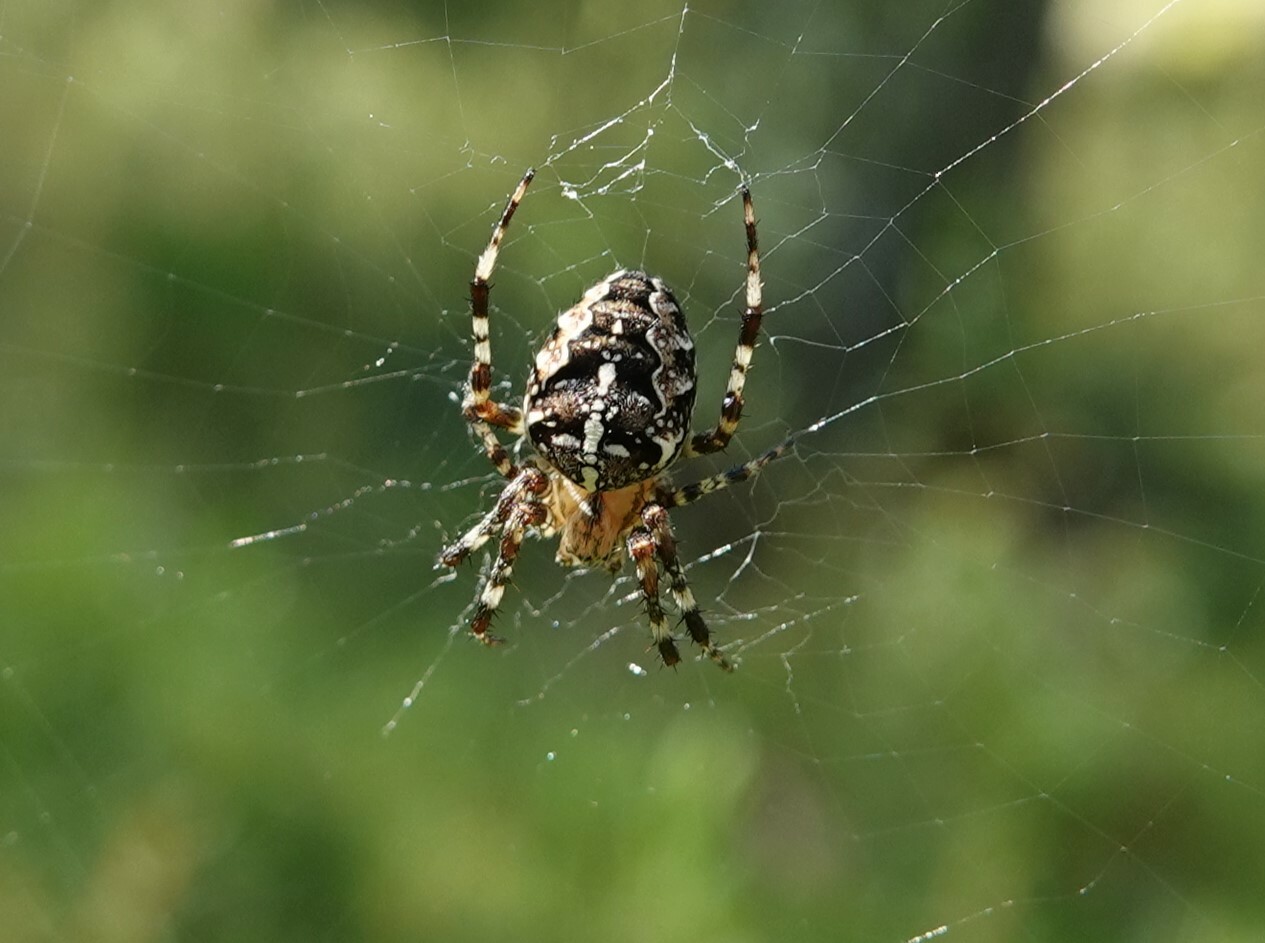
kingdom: Animalia
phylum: Arthropoda
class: Arachnida
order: Araneae
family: Araneidae
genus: Araneus
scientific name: Araneus diadematus
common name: Cross orbweaver
